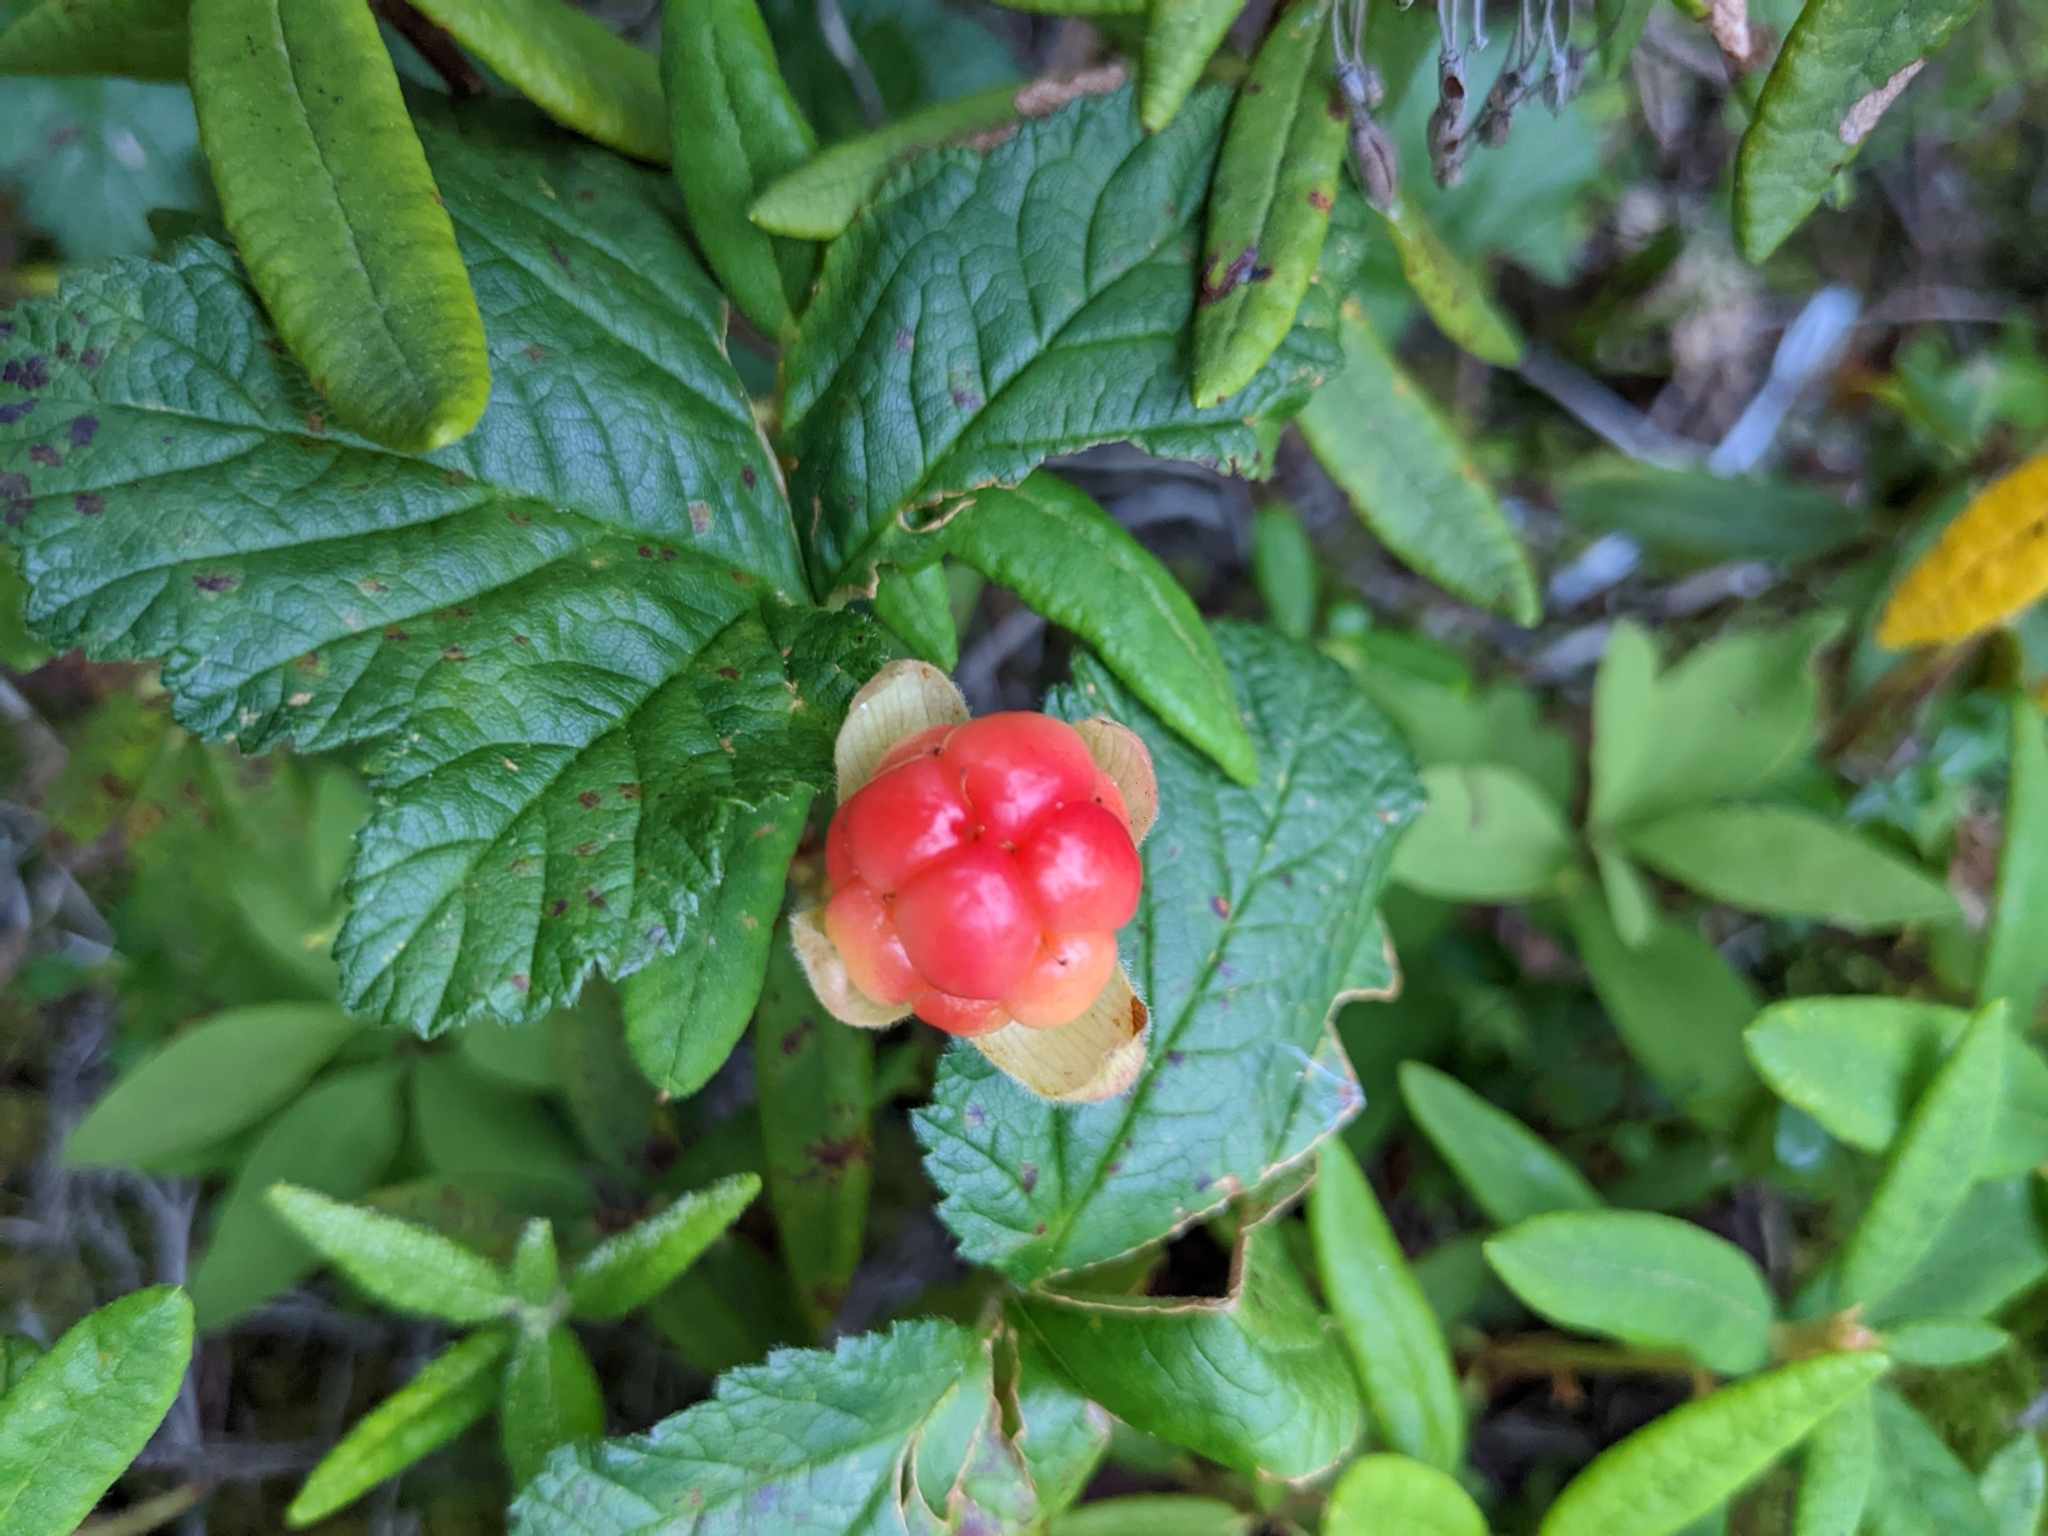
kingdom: Plantae
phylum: Tracheophyta
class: Magnoliopsida
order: Rosales
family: Rosaceae
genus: Rubus
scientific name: Rubus chamaemorus
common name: Cloudberry
